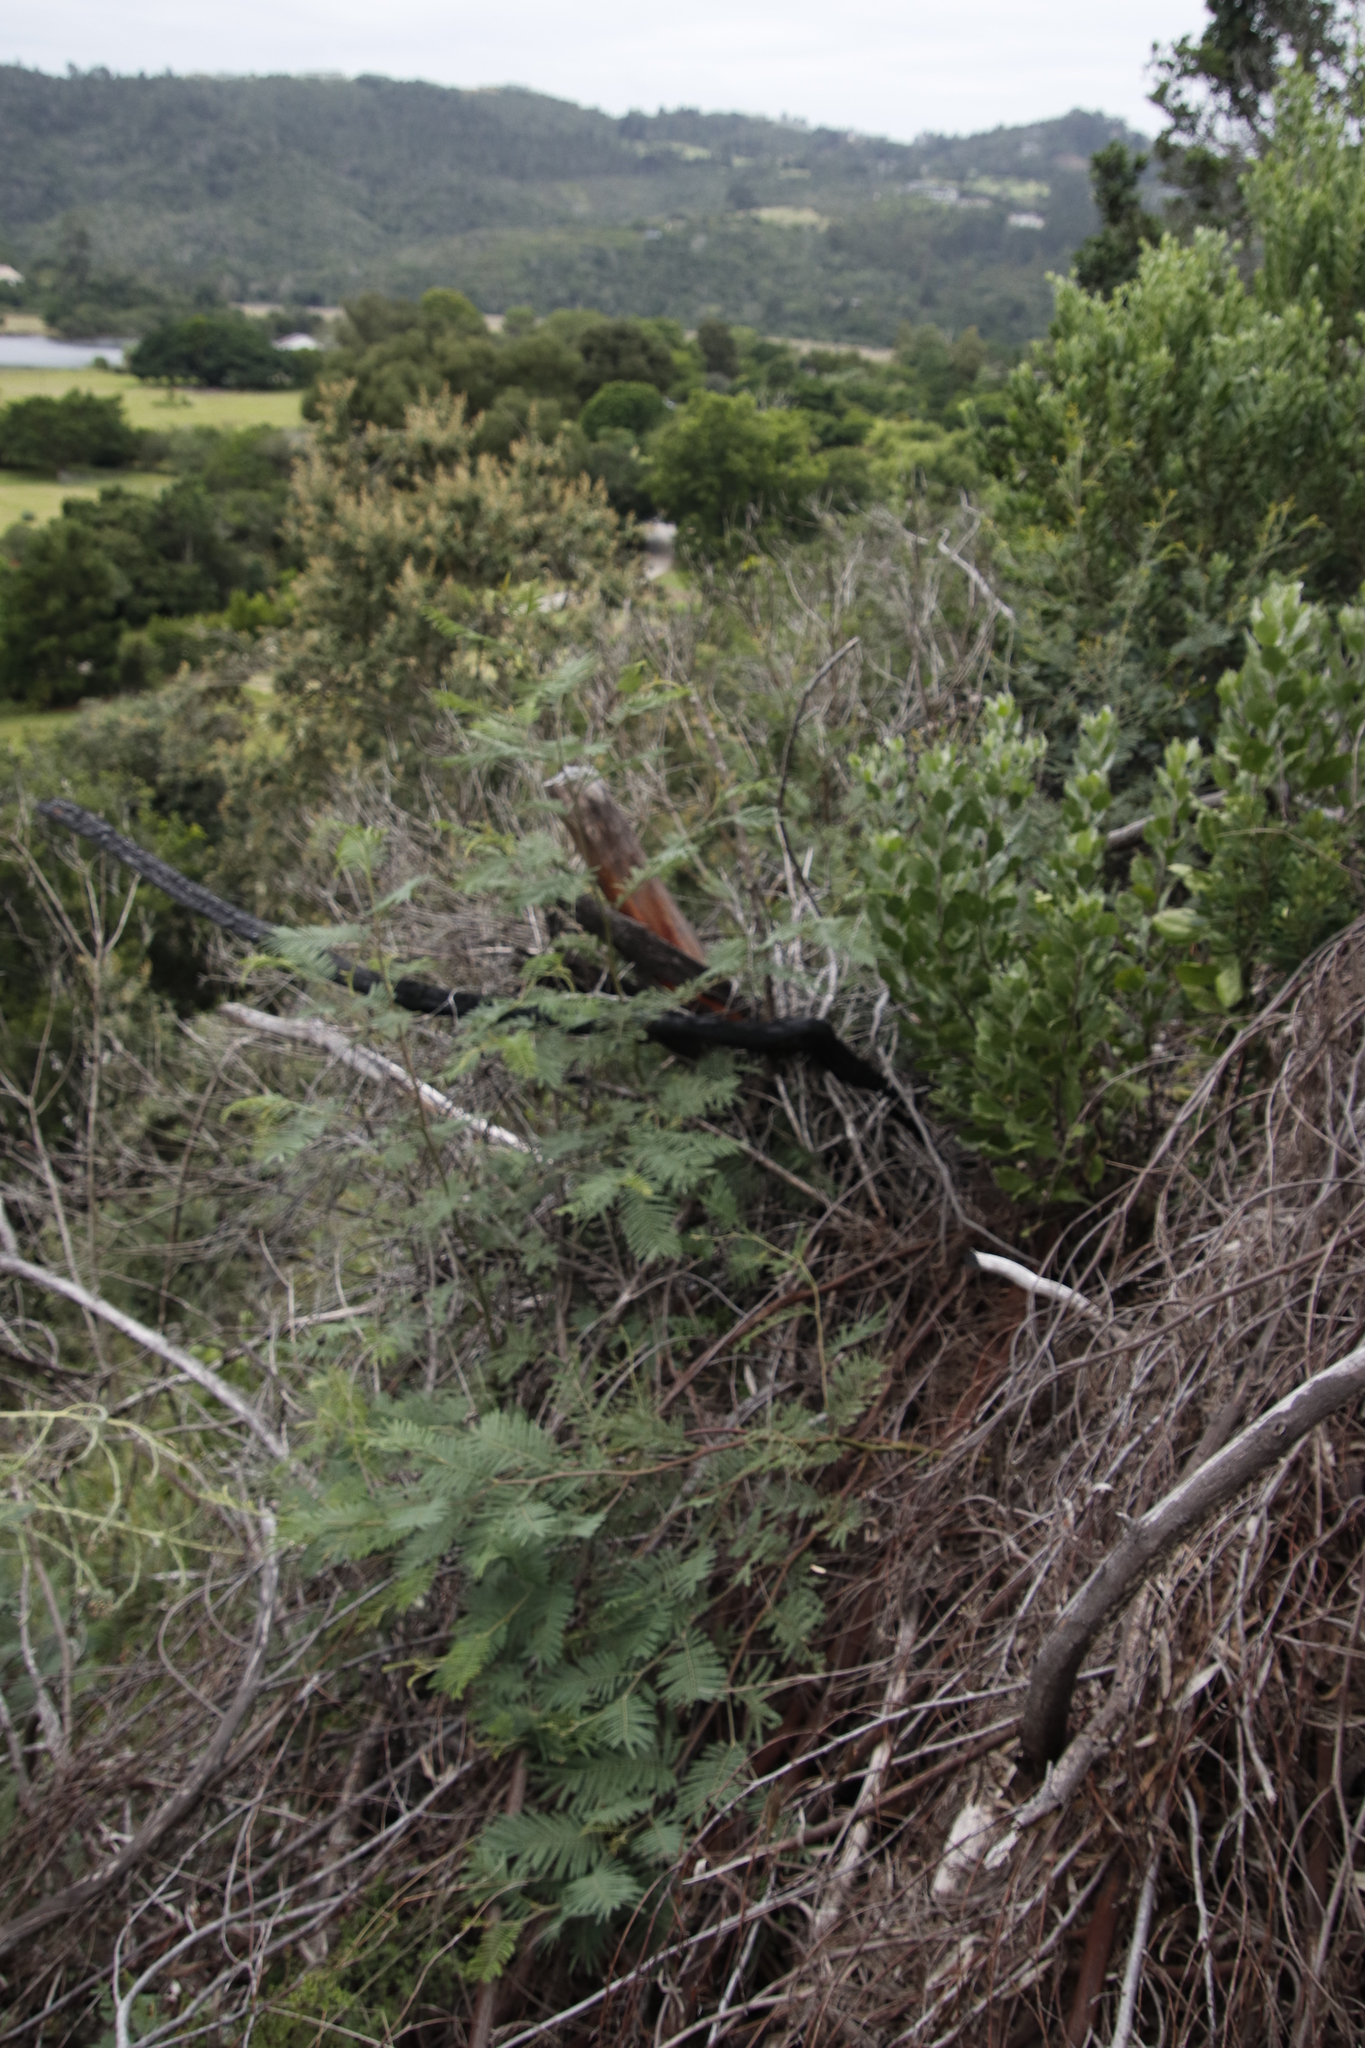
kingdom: Plantae
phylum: Tracheophyta
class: Magnoliopsida
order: Fabales
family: Fabaceae
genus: Acacia
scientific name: Acacia mearnsii
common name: Black wattle
